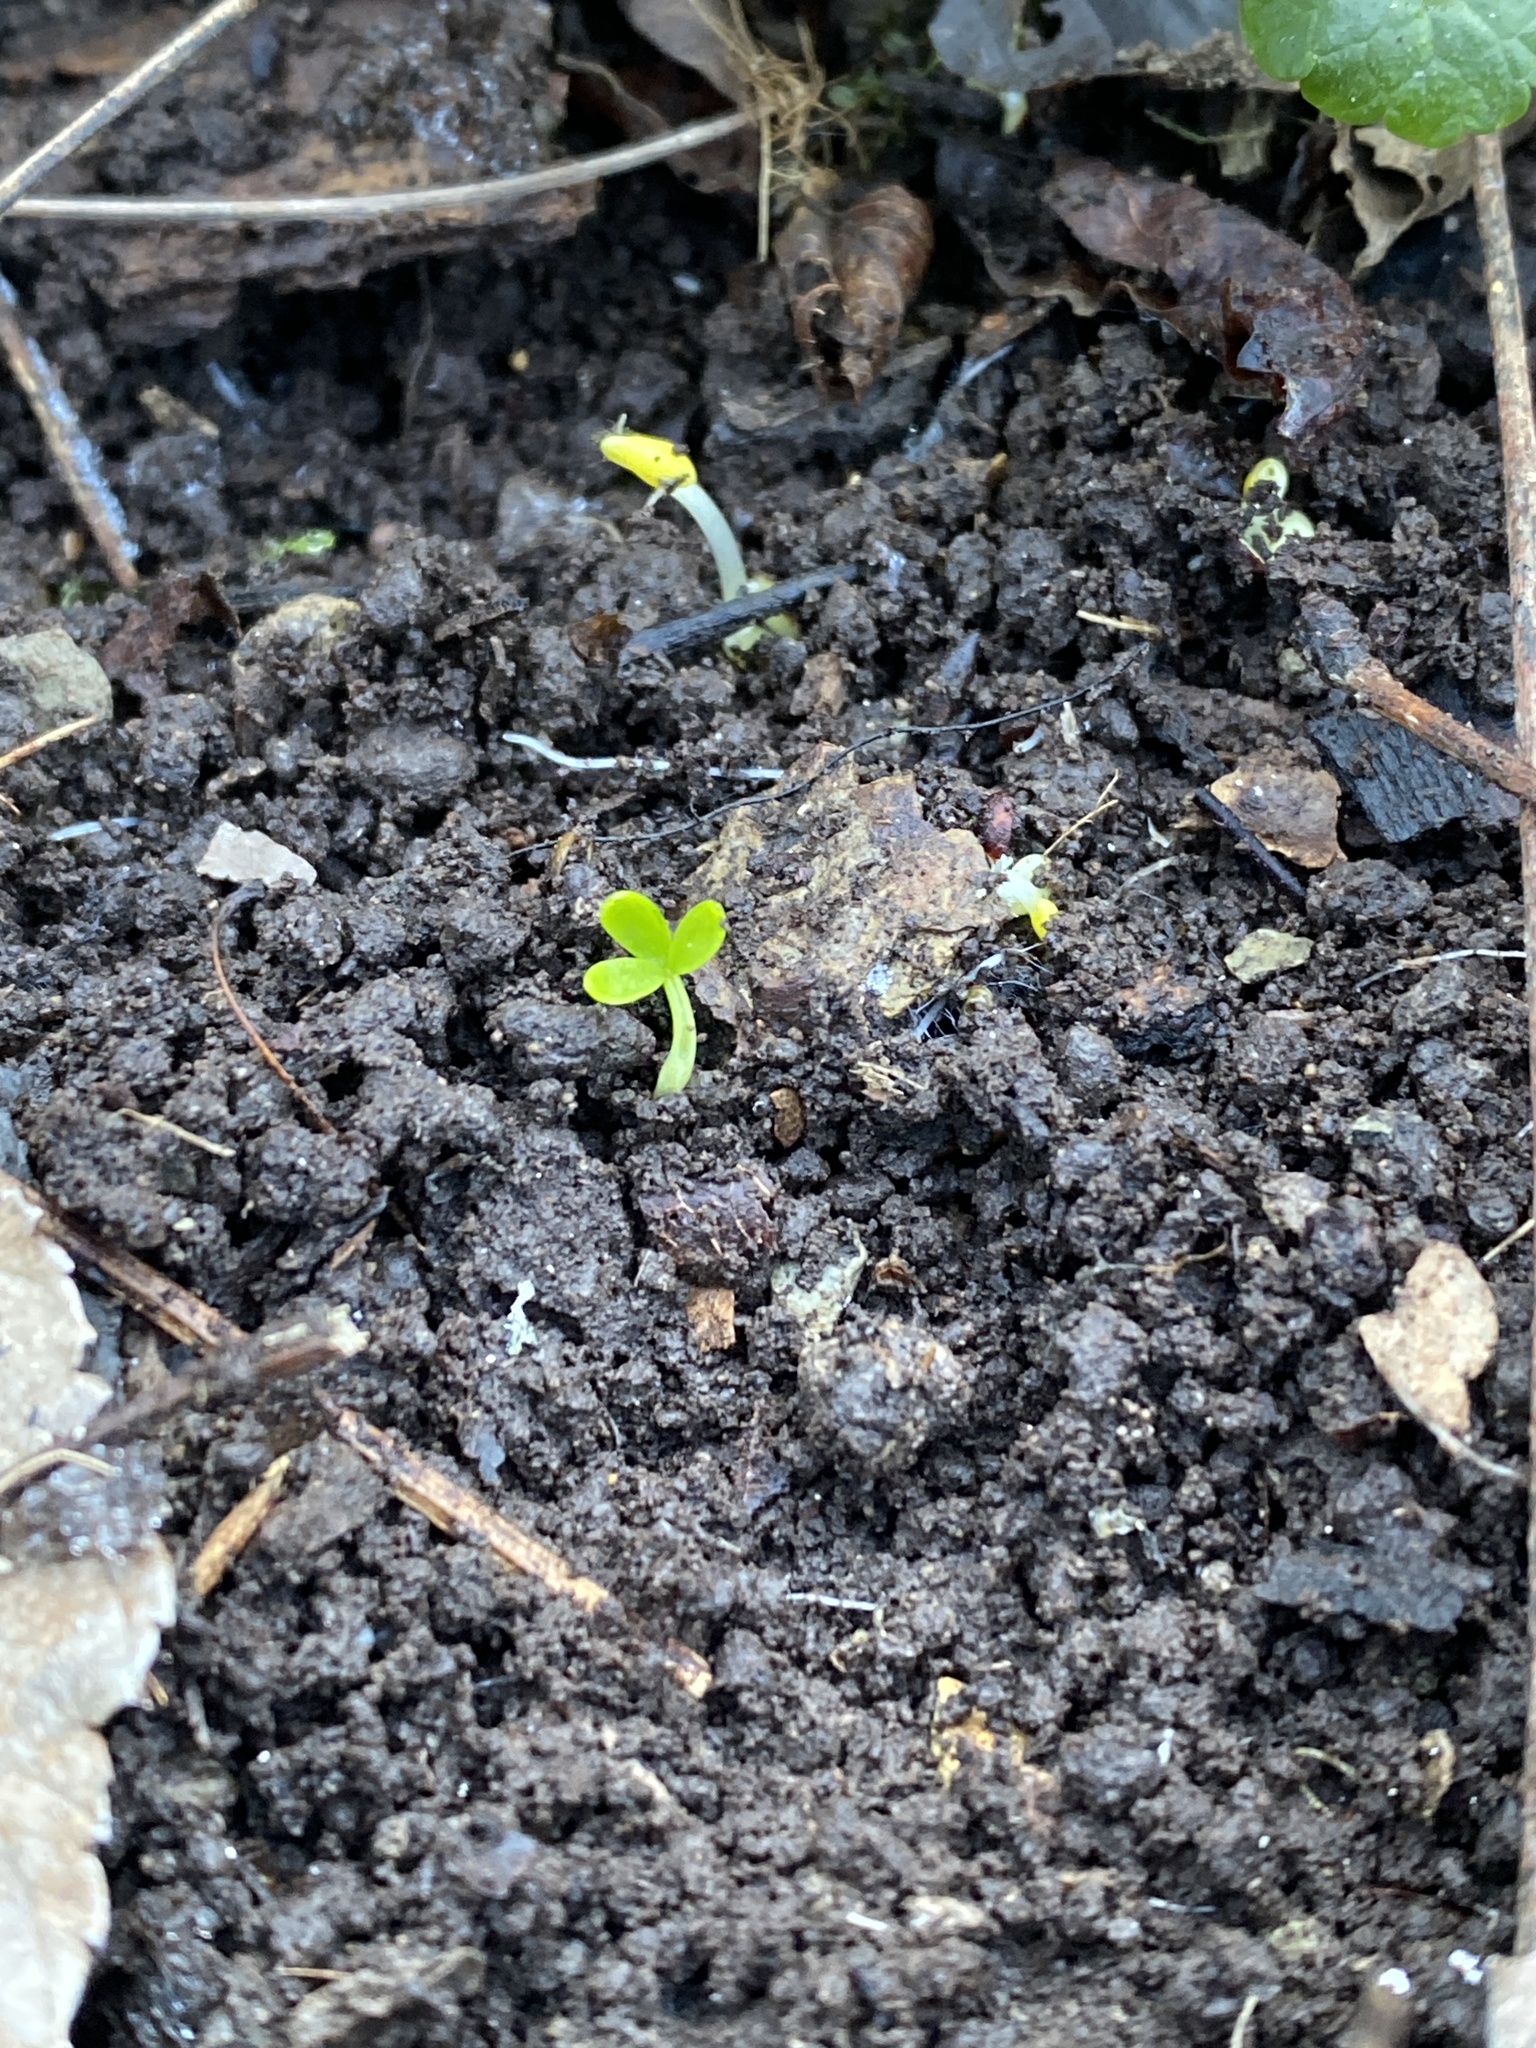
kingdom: Plantae
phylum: Tracheophyta
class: Magnoliopsida
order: Brassicales
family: Limnanthaceae
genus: Floerkea
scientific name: Floerkea proserpinacoides
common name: False mermaid
